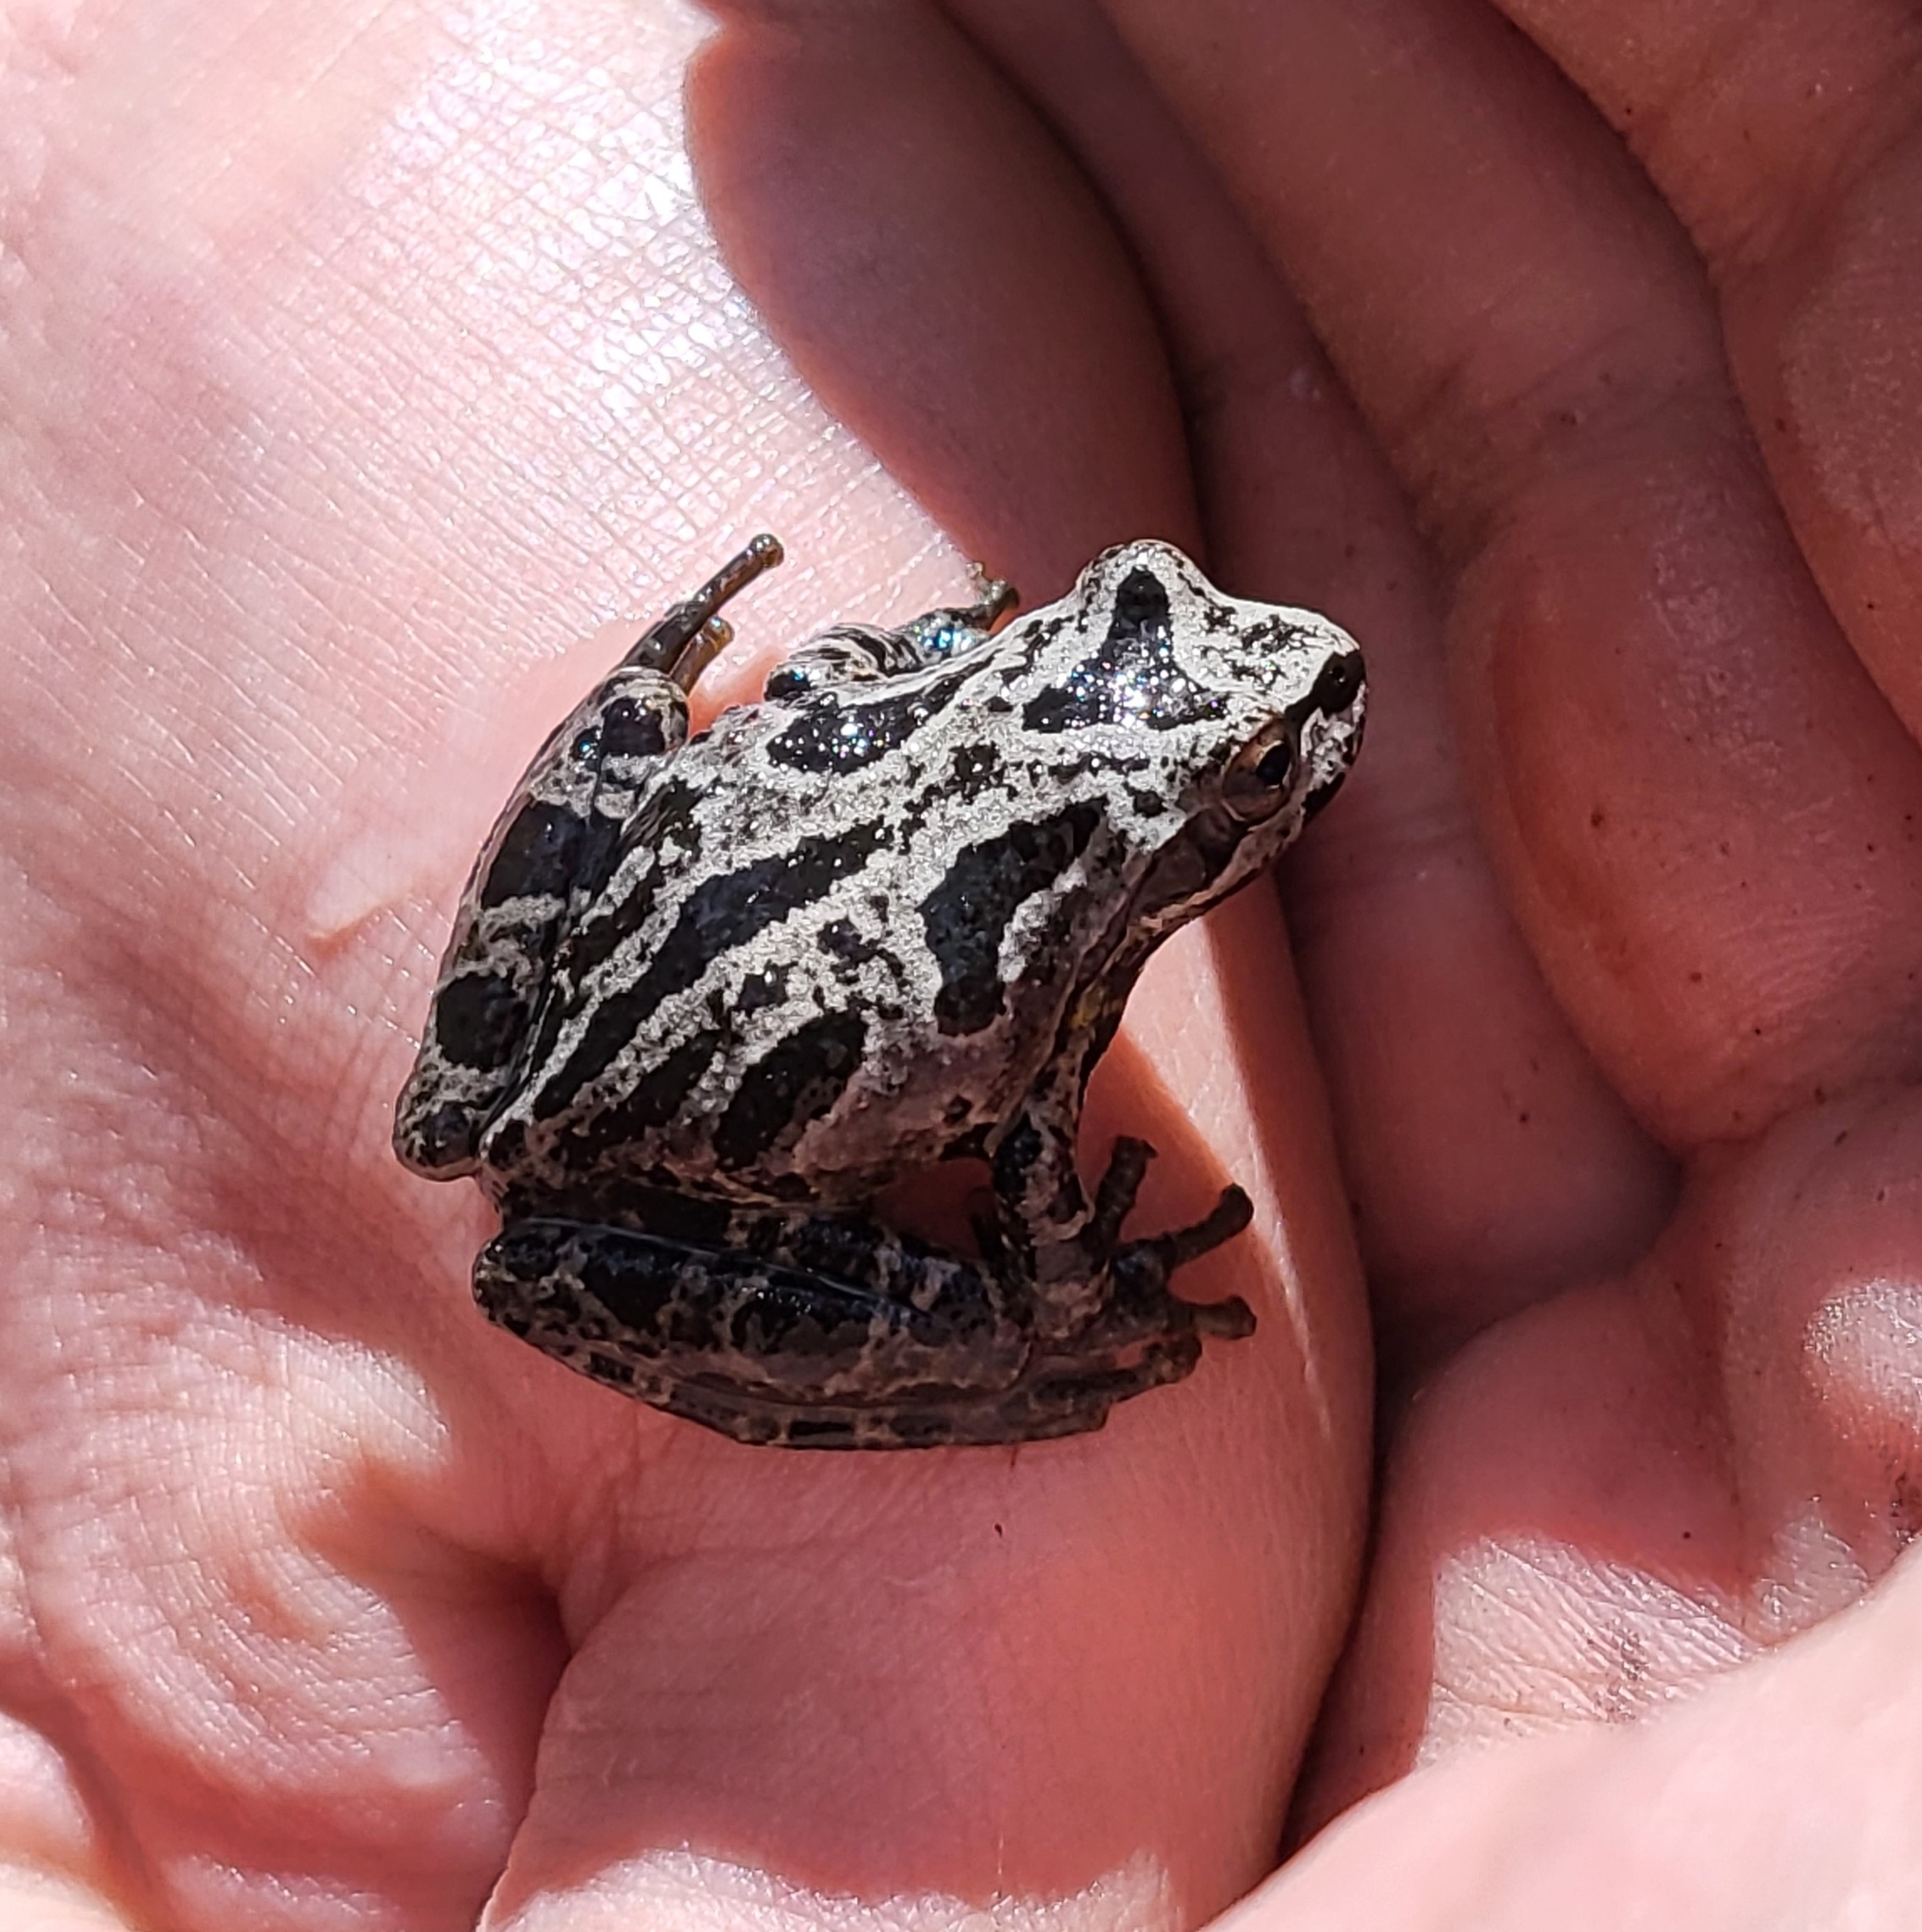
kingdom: Animalia
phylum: Chordata
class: Amphibia
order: Anura
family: Hylidae
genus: Pseudacris
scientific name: Pseudacris regilla
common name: Pacific chorus frog
